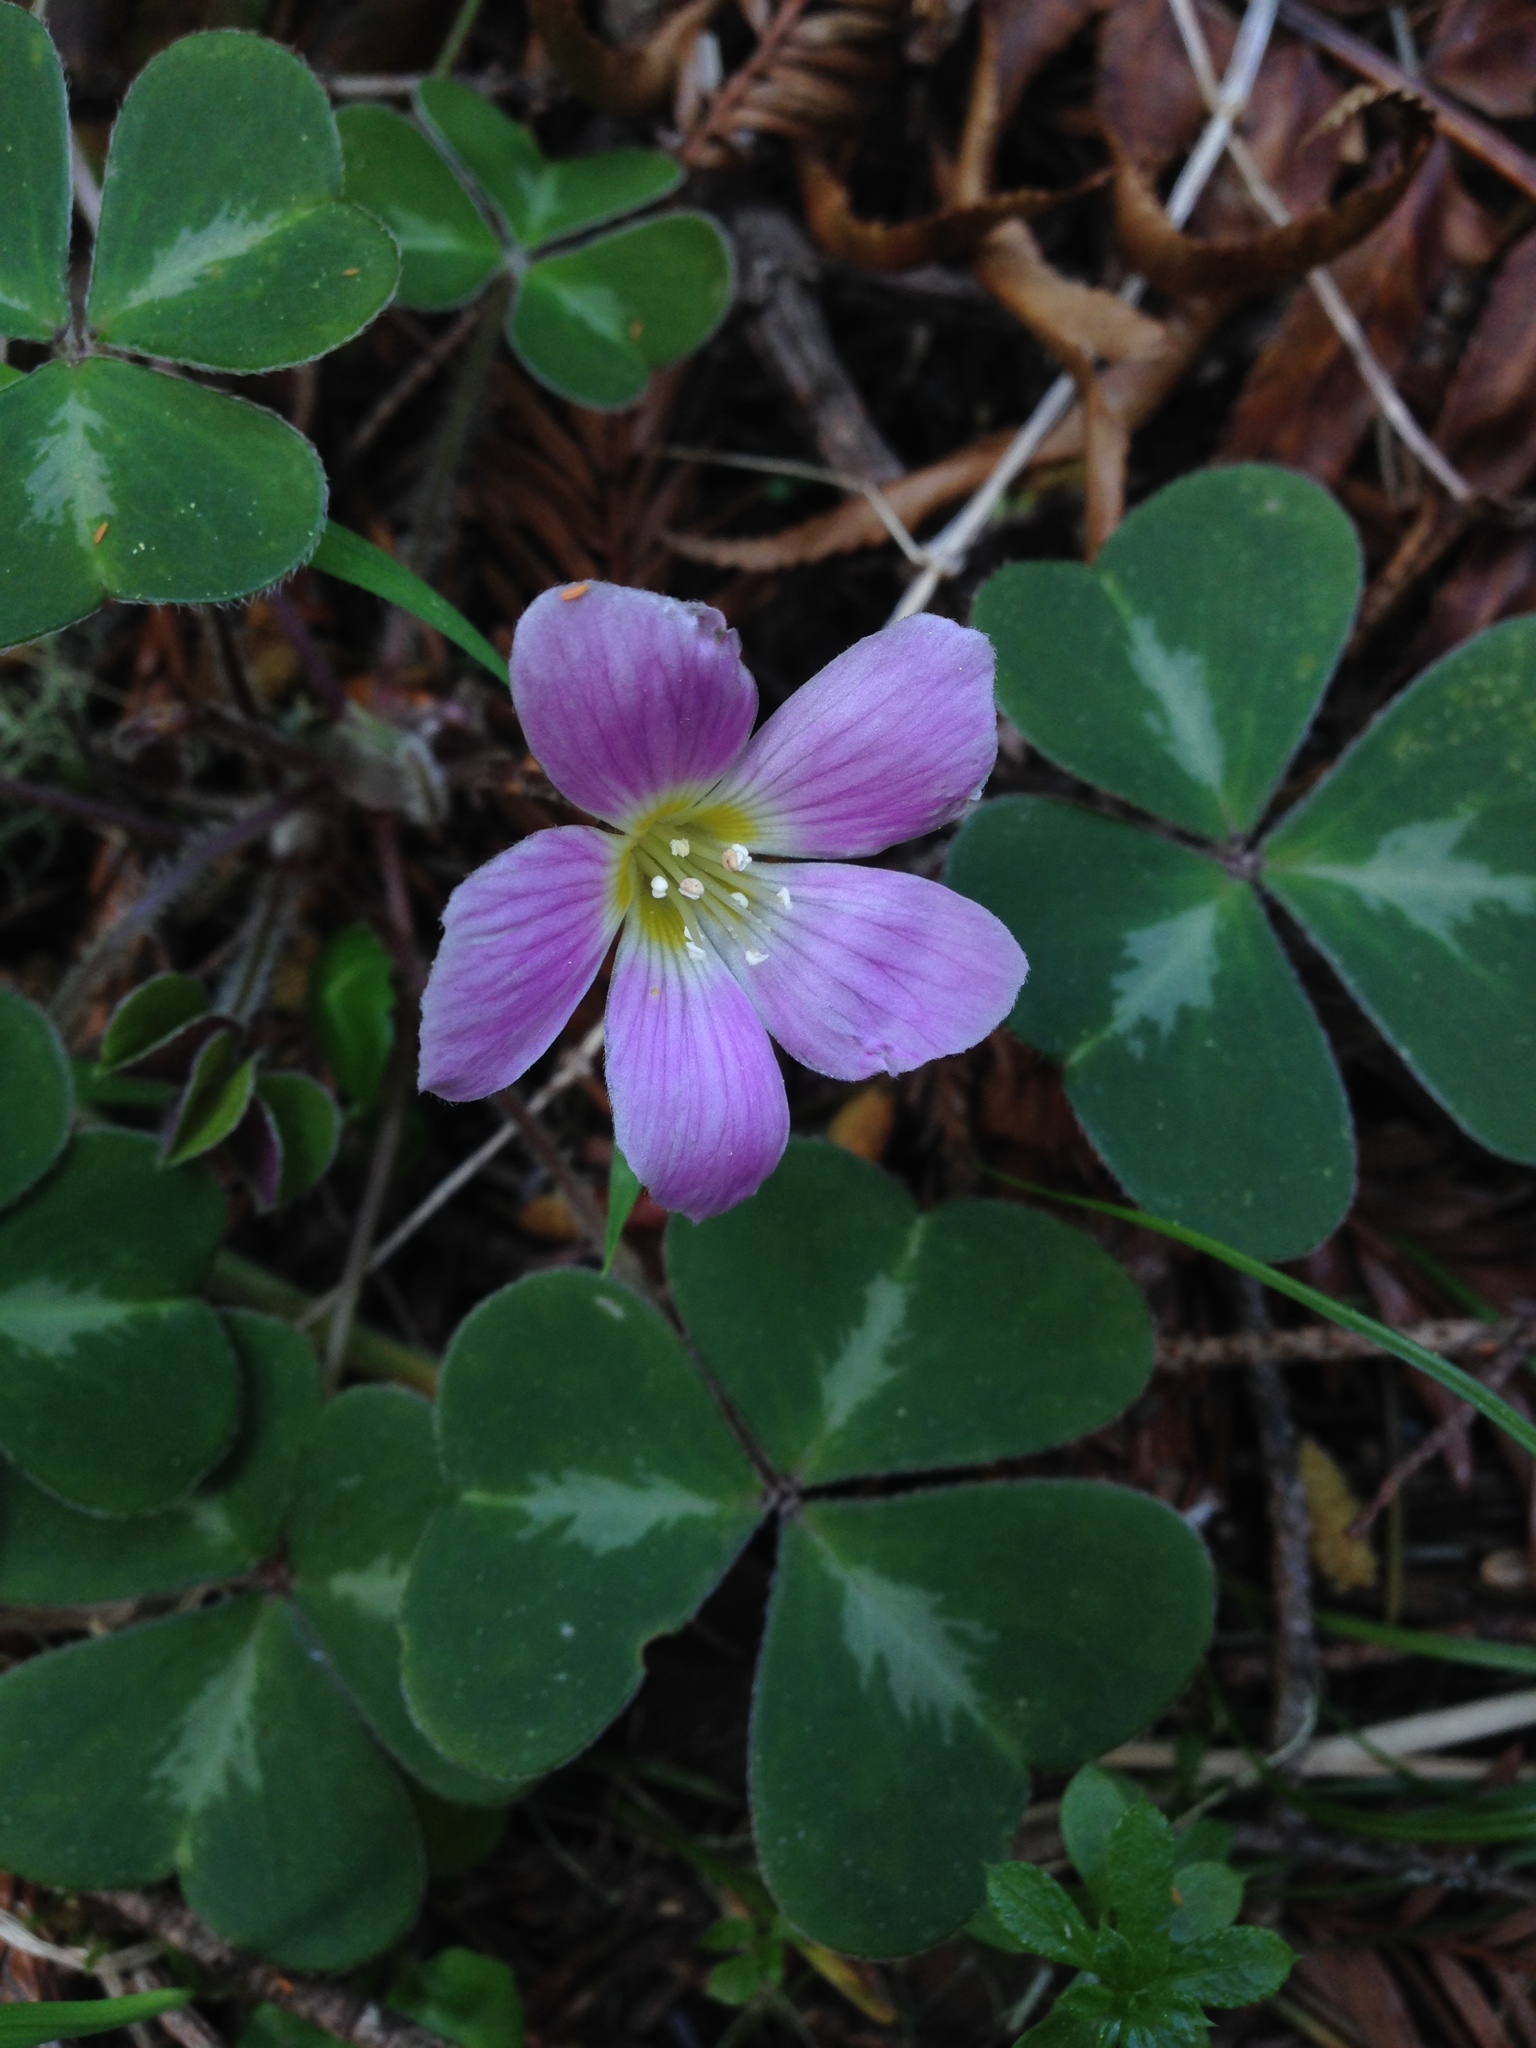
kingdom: Plantae
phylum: Tracheophyta
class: Magnoliopsida
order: Oxalidales
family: Oxalidaceae
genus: Oxalis
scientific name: Oxalis oregana
